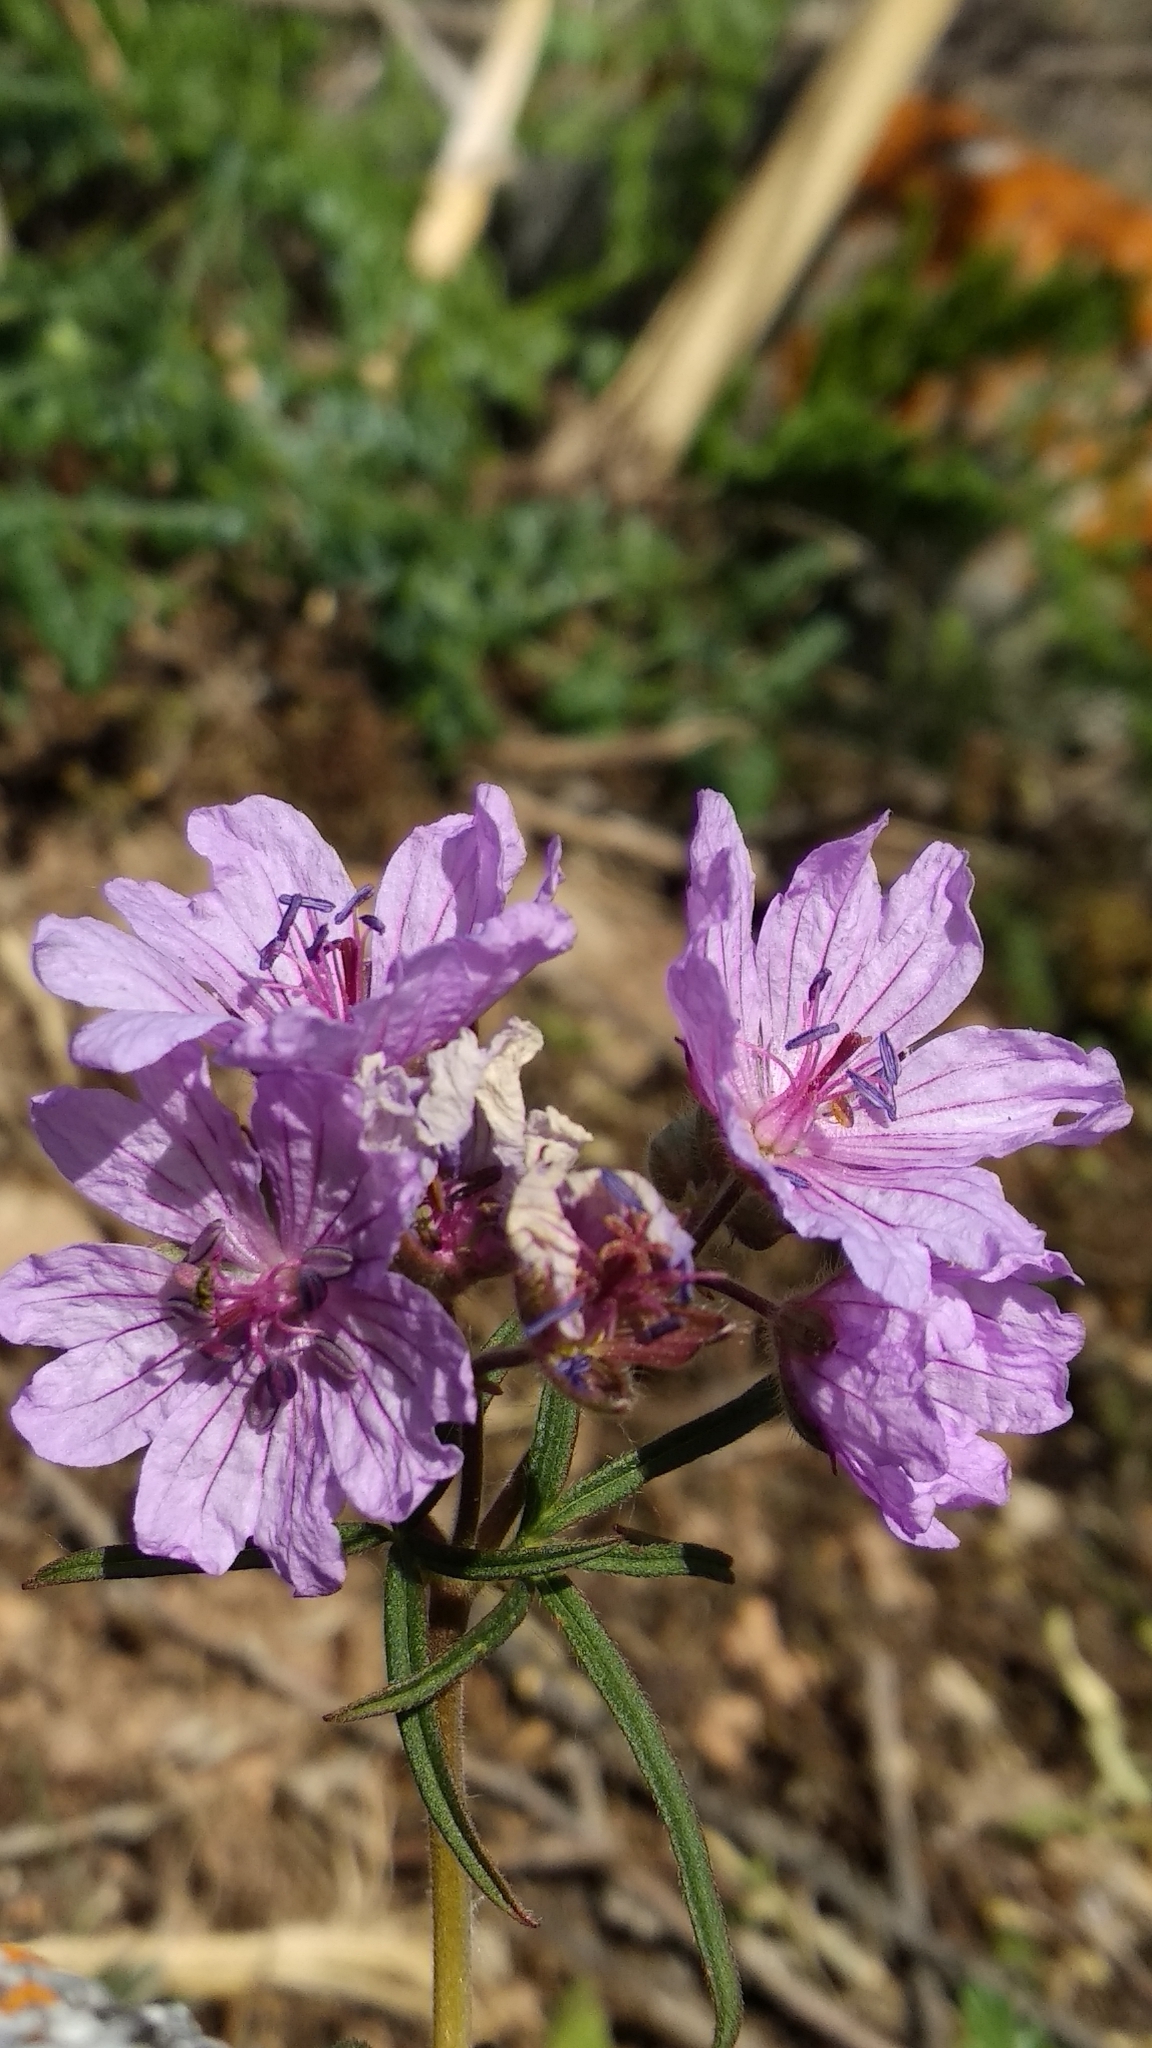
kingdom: Plantae
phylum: Tracheophyta
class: Magnoliopsida
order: Geraniales
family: Geraniaceae
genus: Geranium
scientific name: Geranium linearilobum
